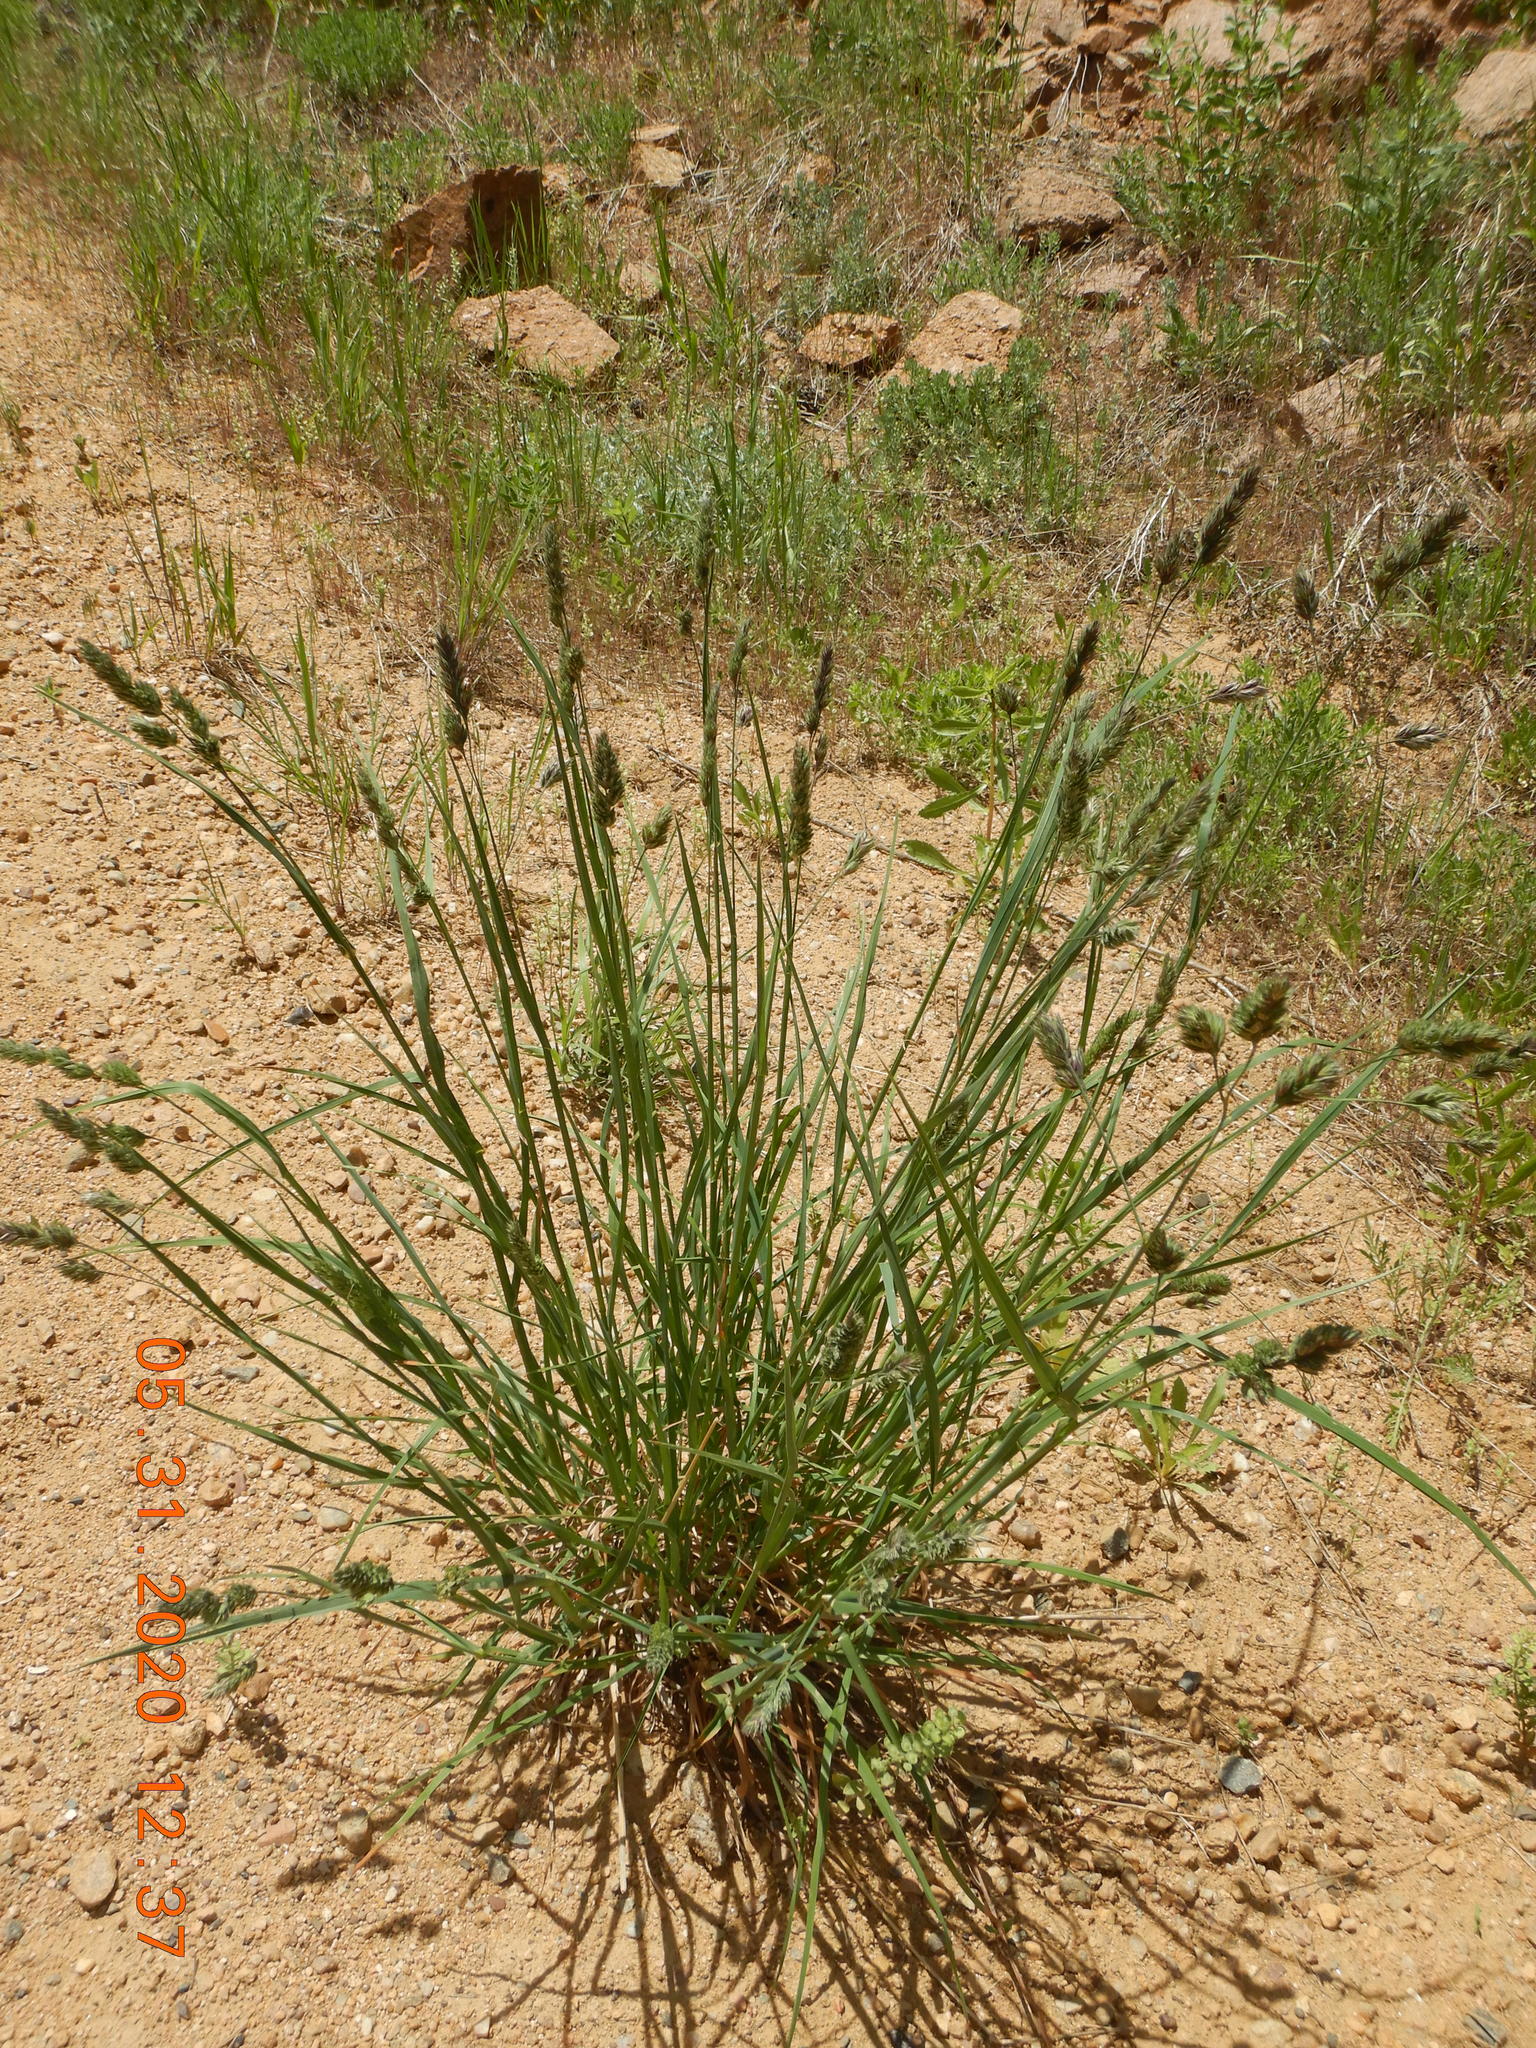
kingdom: Plantae
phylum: Tracheophyta
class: Liliopsida
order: Poales
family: Poaceae
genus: Dactylis
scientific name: Dactylis glomerata
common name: Orchardgrass
